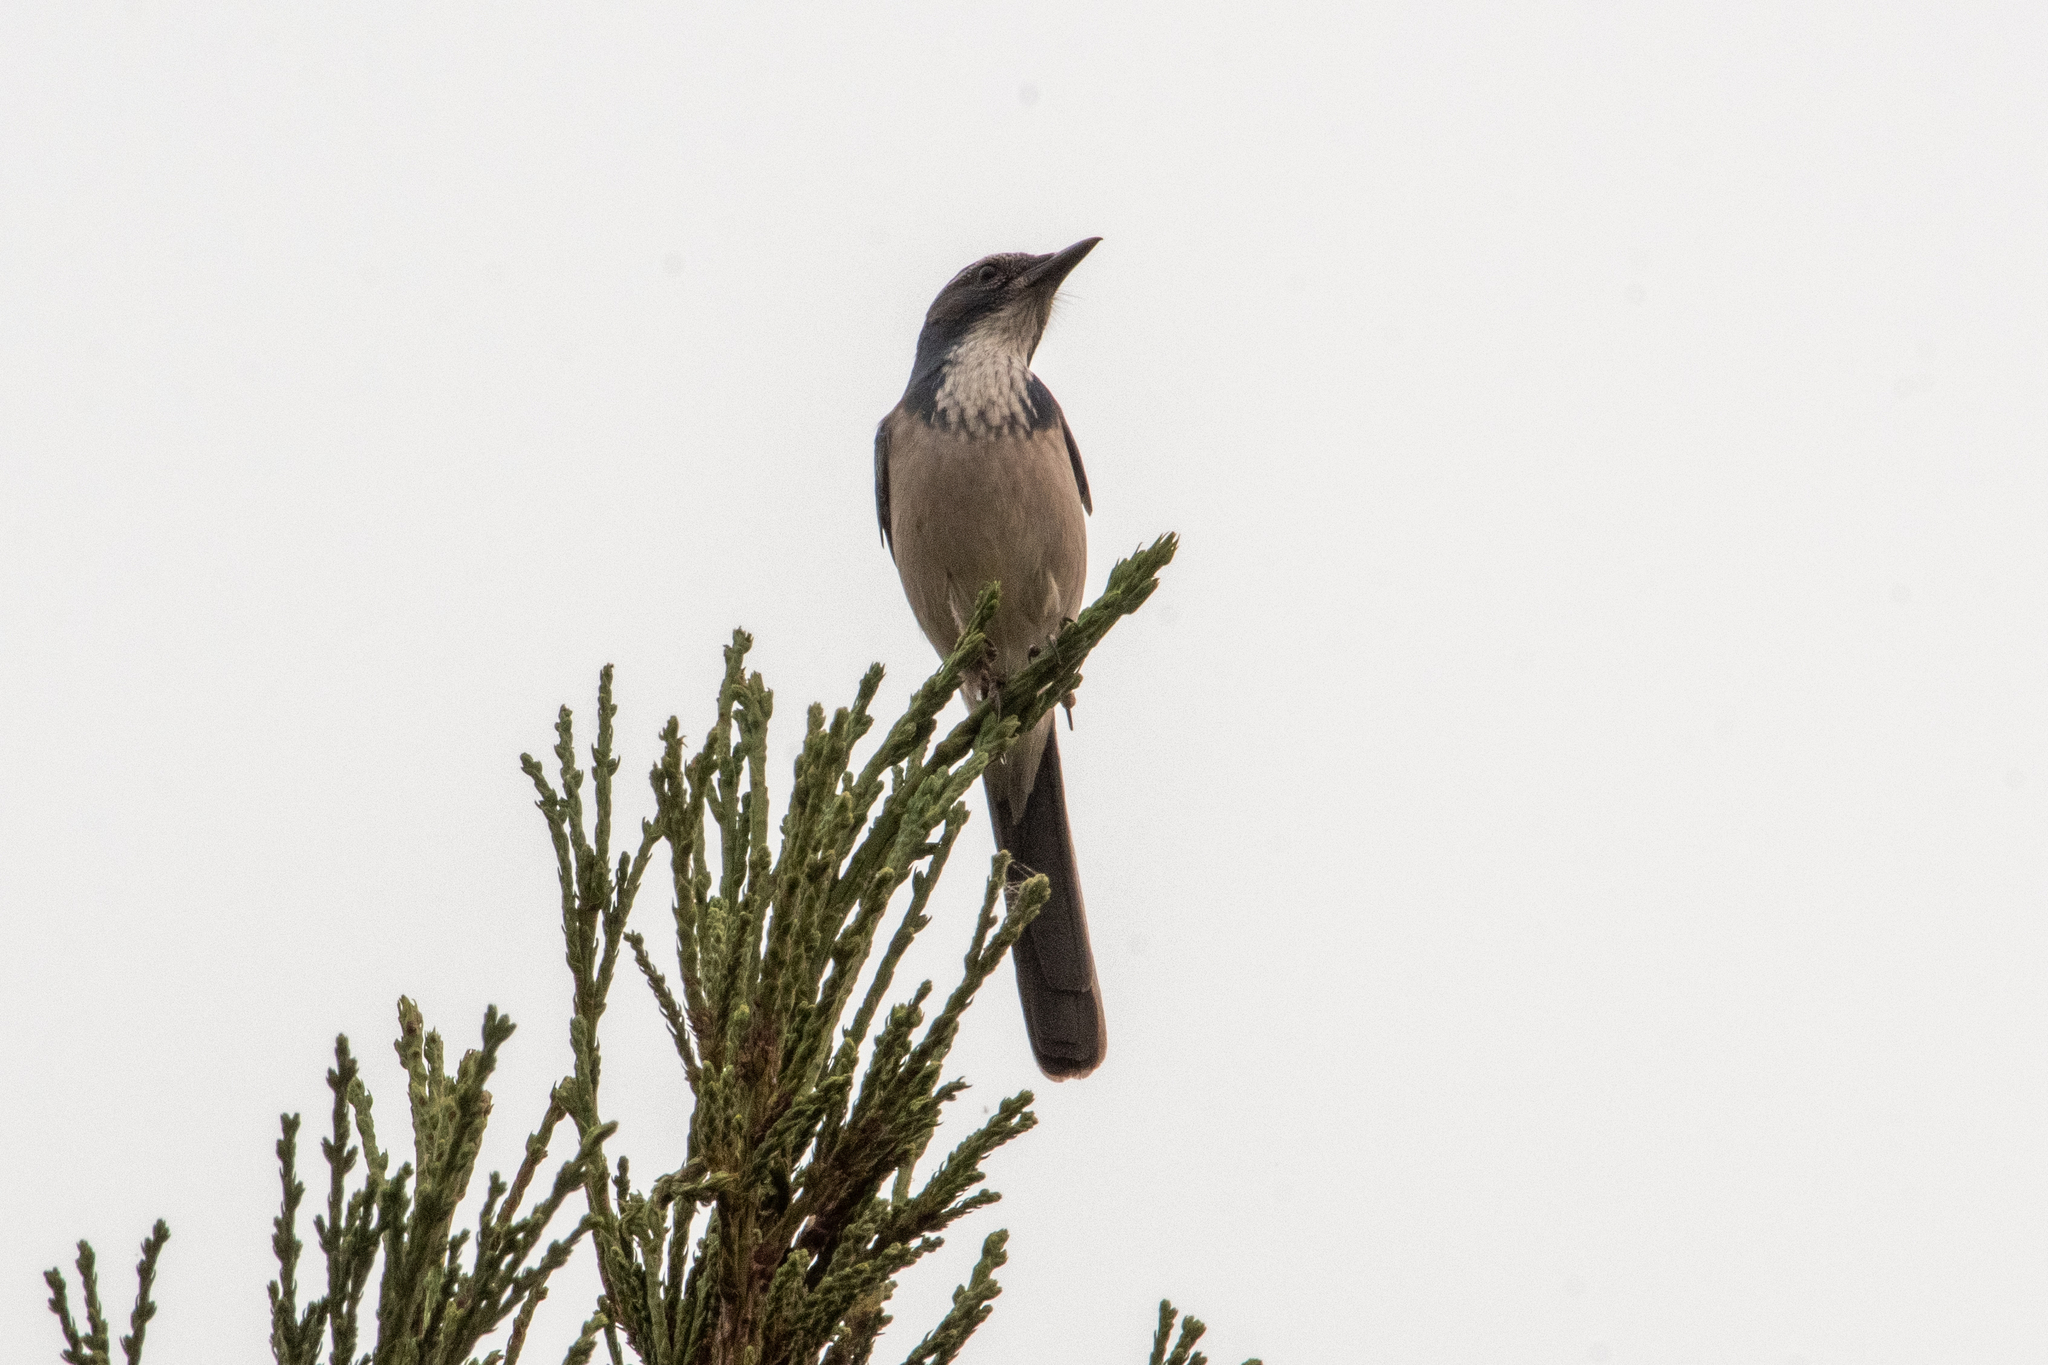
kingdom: Animalia
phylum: Chordata
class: Aves
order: Passeriformes
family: Corvidae
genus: Aphelocoma
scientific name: Aphelocoma californica
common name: California scrub-jay
